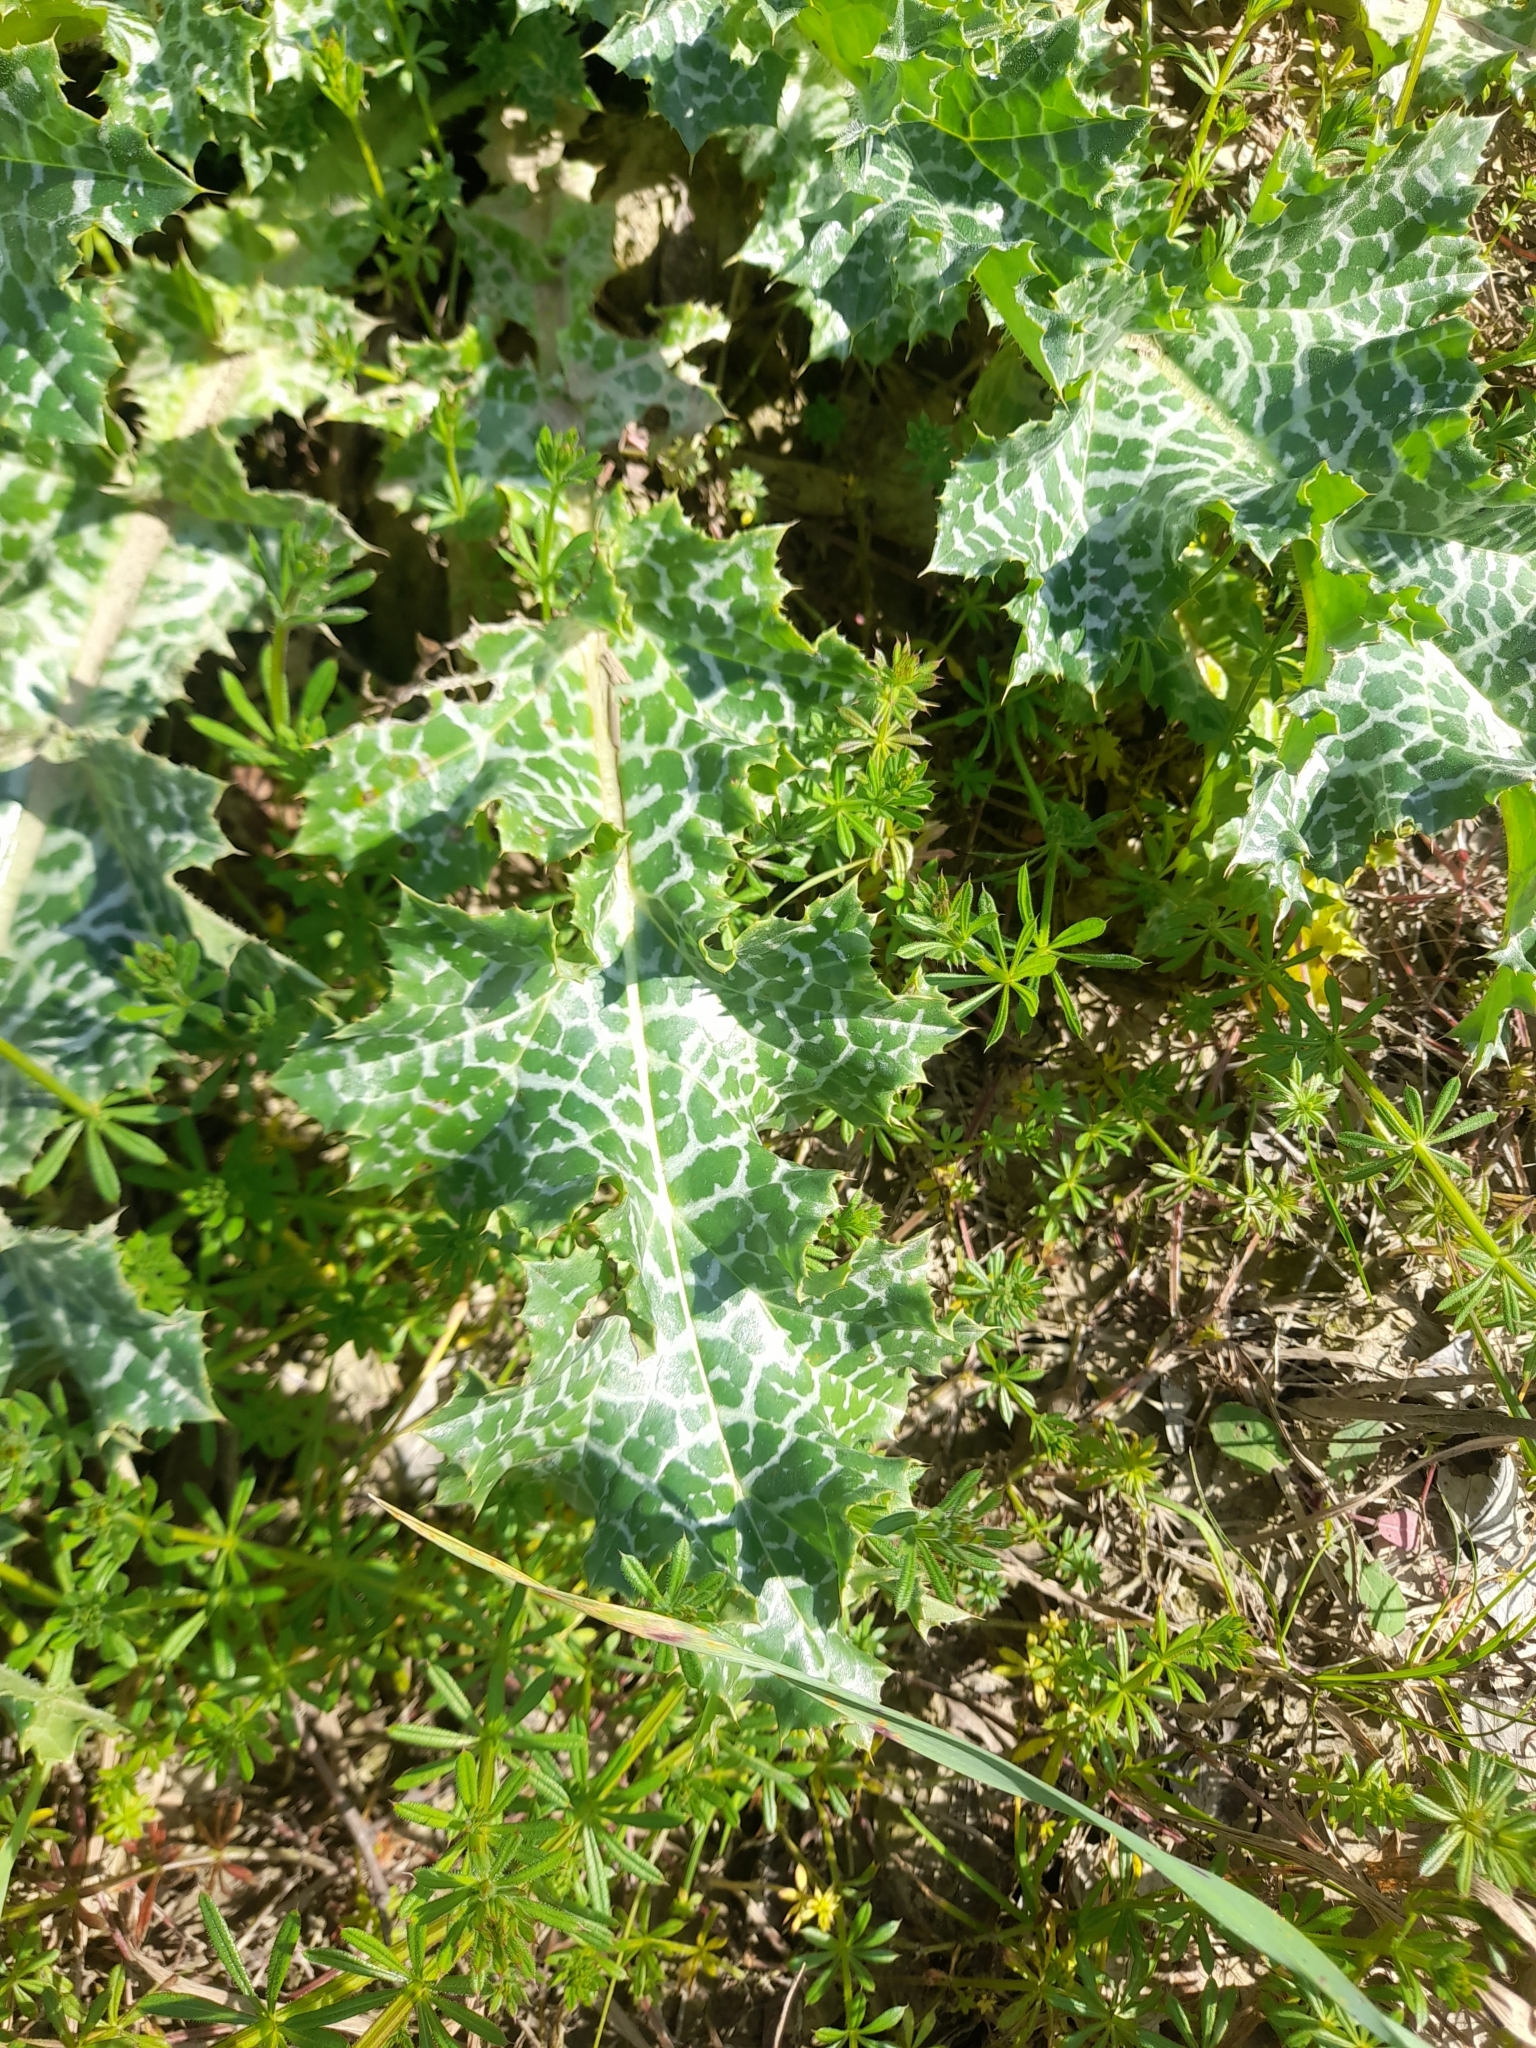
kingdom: Plantae
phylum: Tracheophyta
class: Magnoliopsida
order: Asterales
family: Asteraceae
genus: Silybum
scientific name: Silybum marianum
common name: Milk thistle
